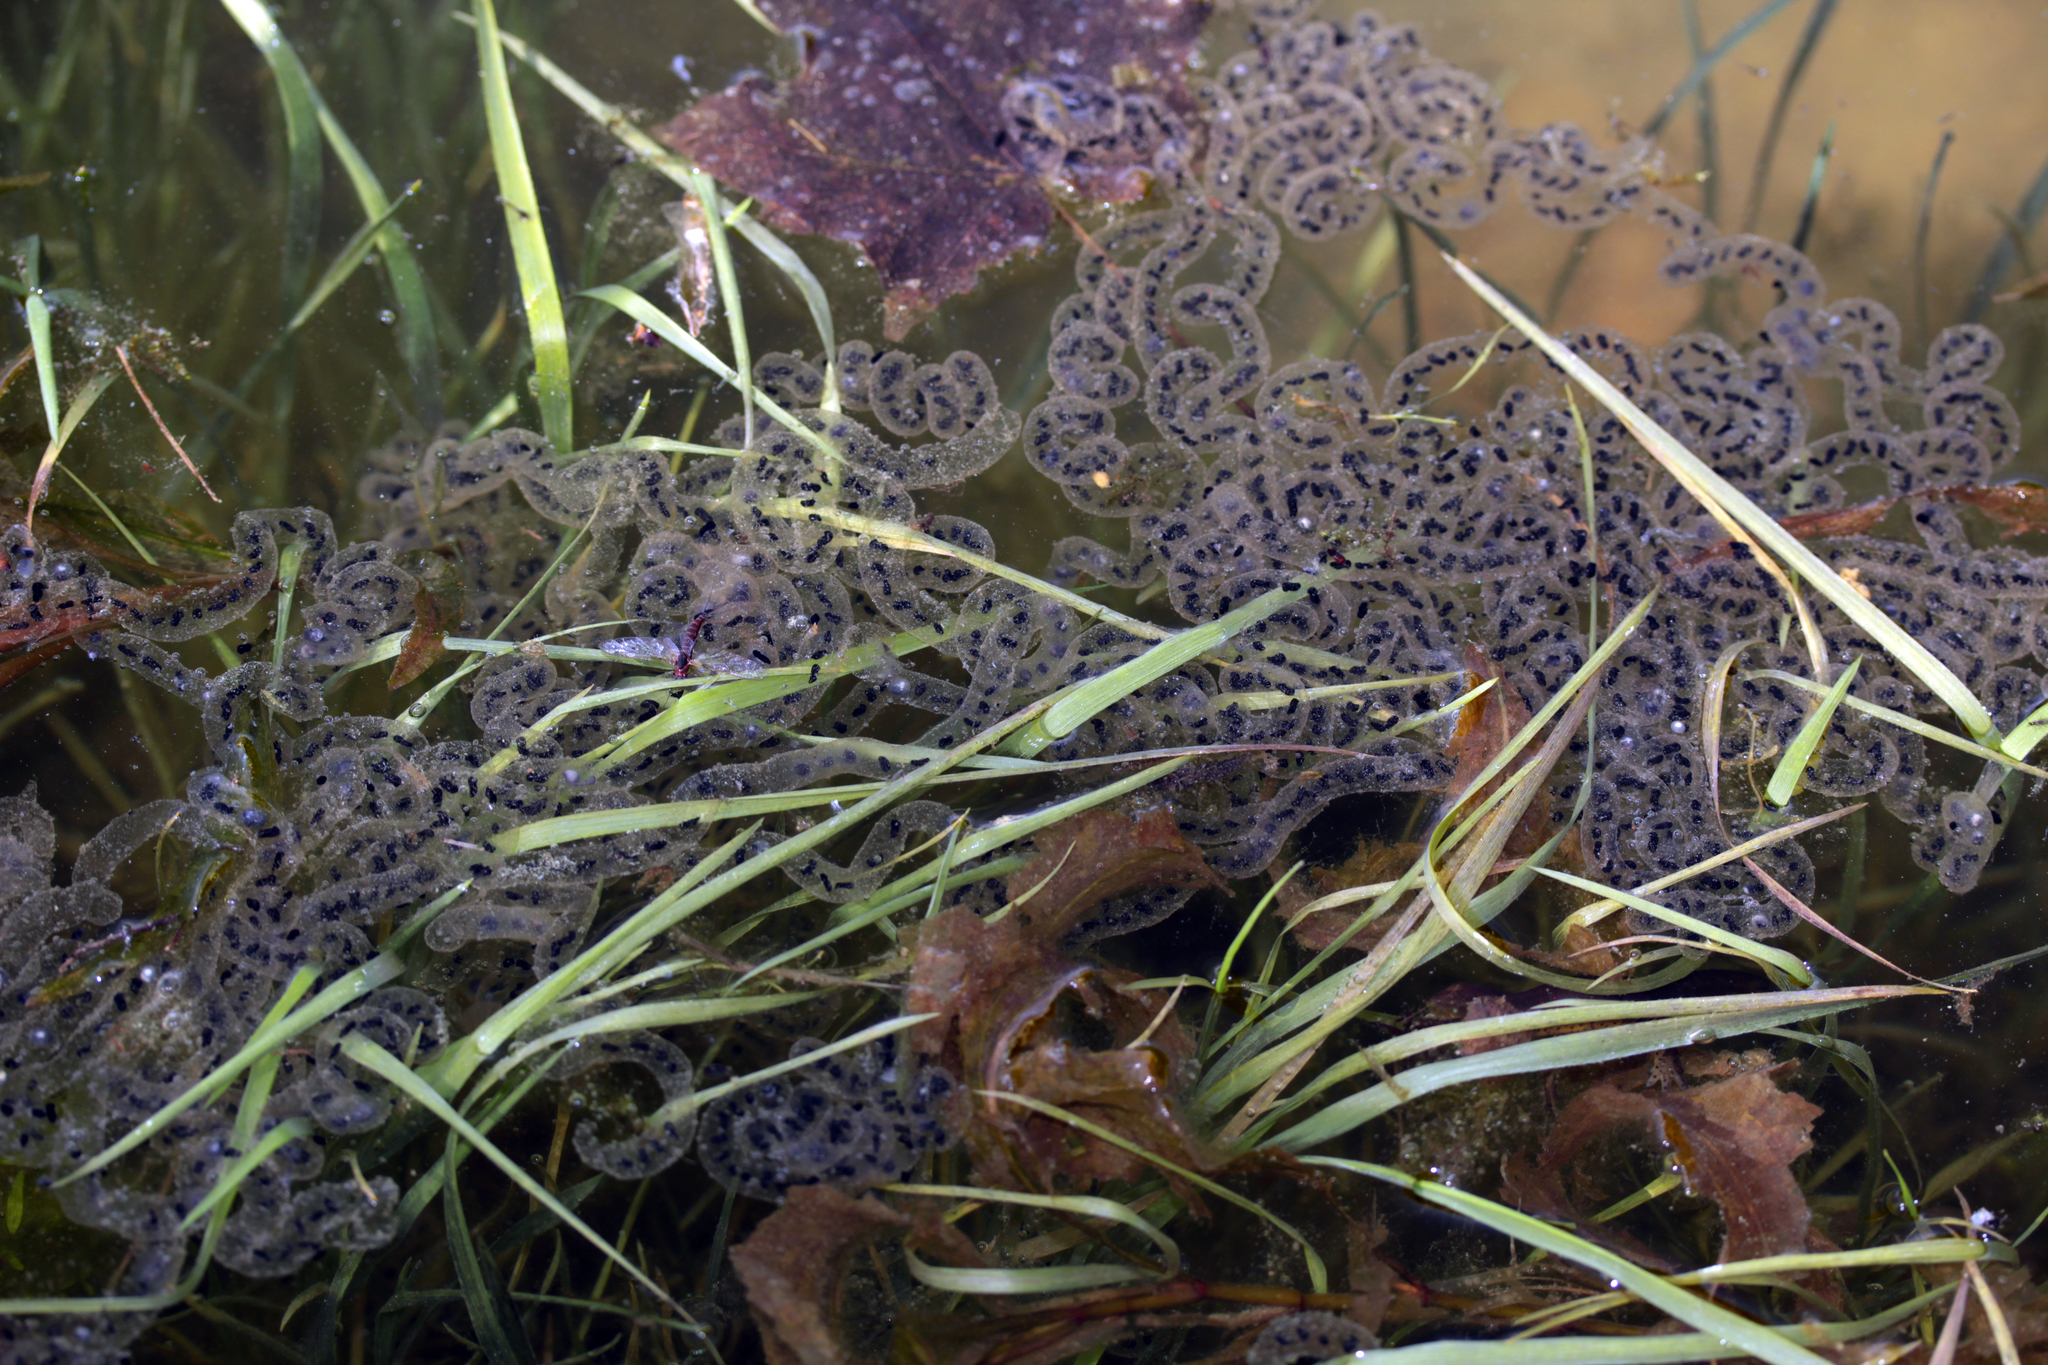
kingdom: Animalia
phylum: Chordata
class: Amphibia
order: Anura
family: Bufonidae
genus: Anaxyrus
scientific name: Anaxyrus americanus
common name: American toad
